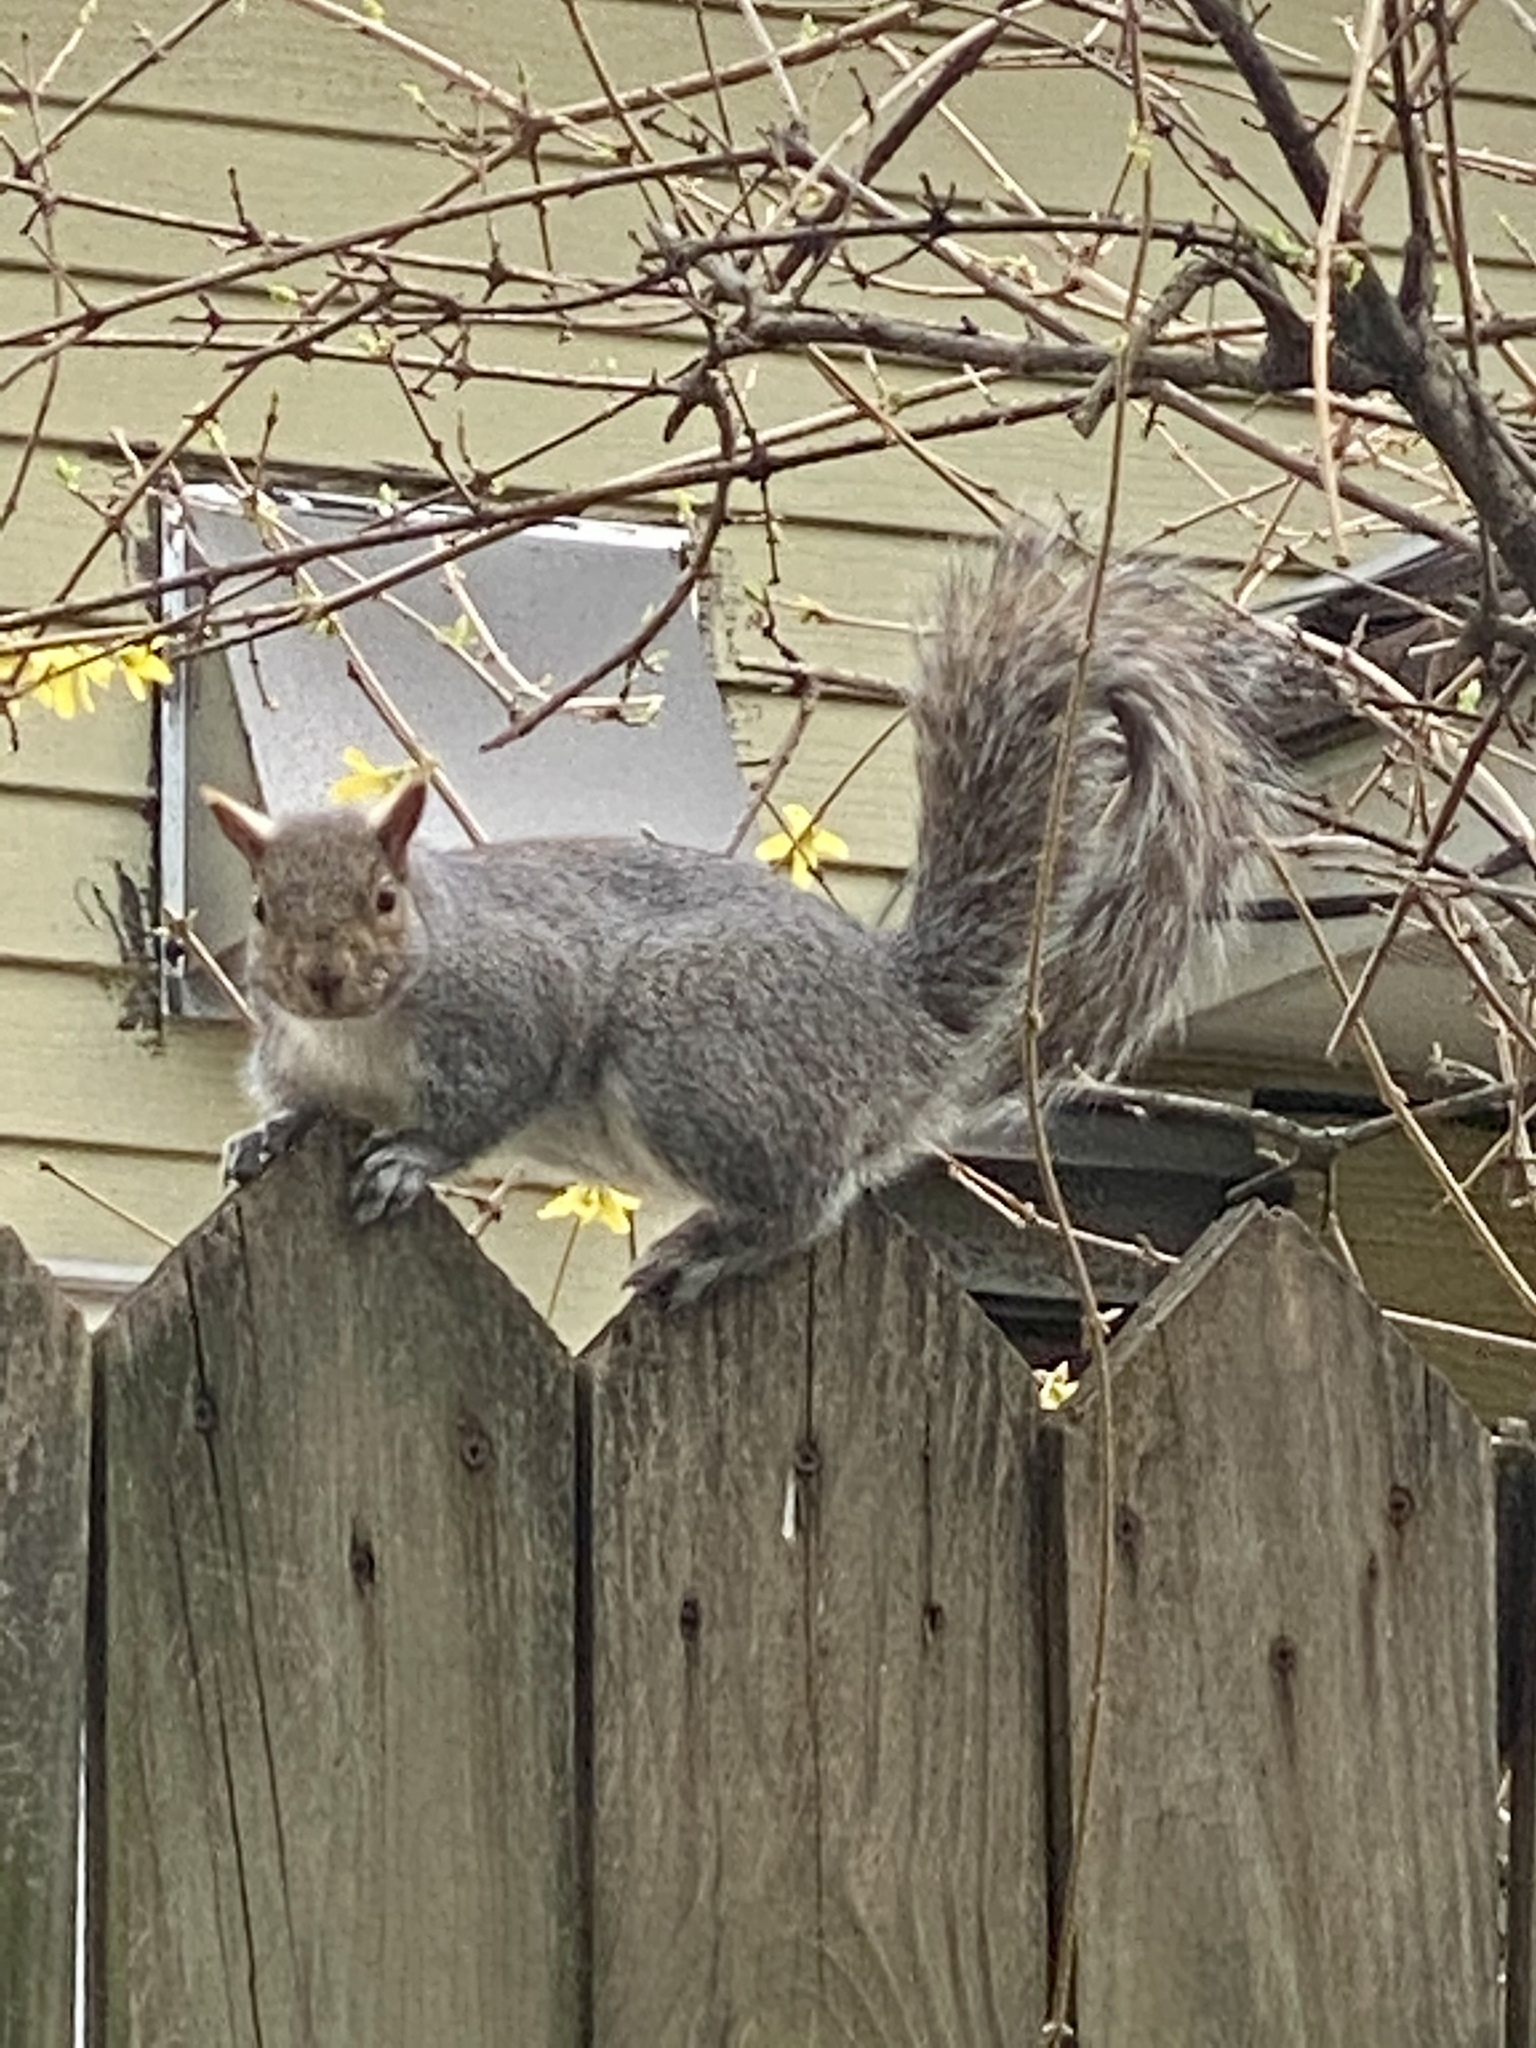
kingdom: Animalia
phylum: Chordata
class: Mammalia
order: Rodentia
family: Sciuridae
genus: Sciurus
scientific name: Sciurus carolinensis
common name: Eastern gray squirrel
